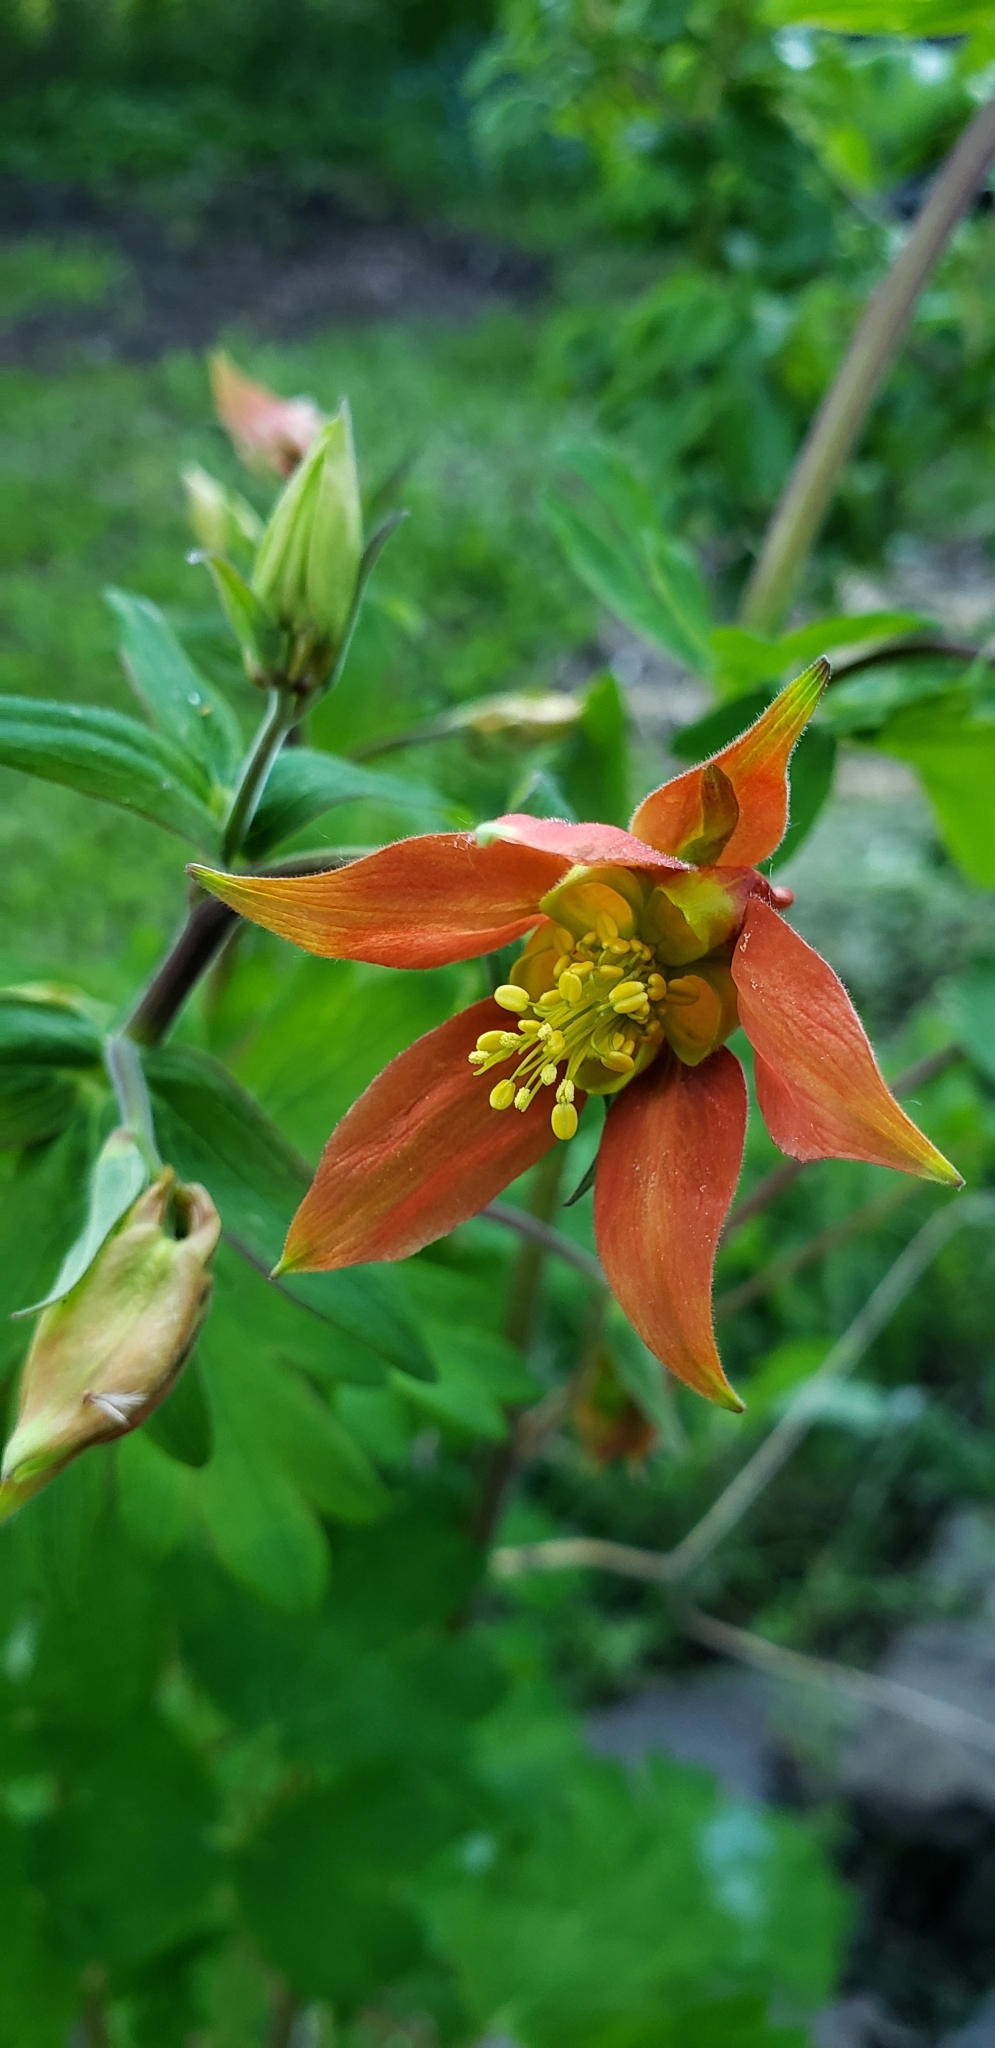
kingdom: Plantae
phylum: Tracheophyta
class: Magnoliopsida
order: Ranunculales
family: Ranunculaceae
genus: Aquilegia
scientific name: Aquilegia formosa
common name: Sitka columbine
